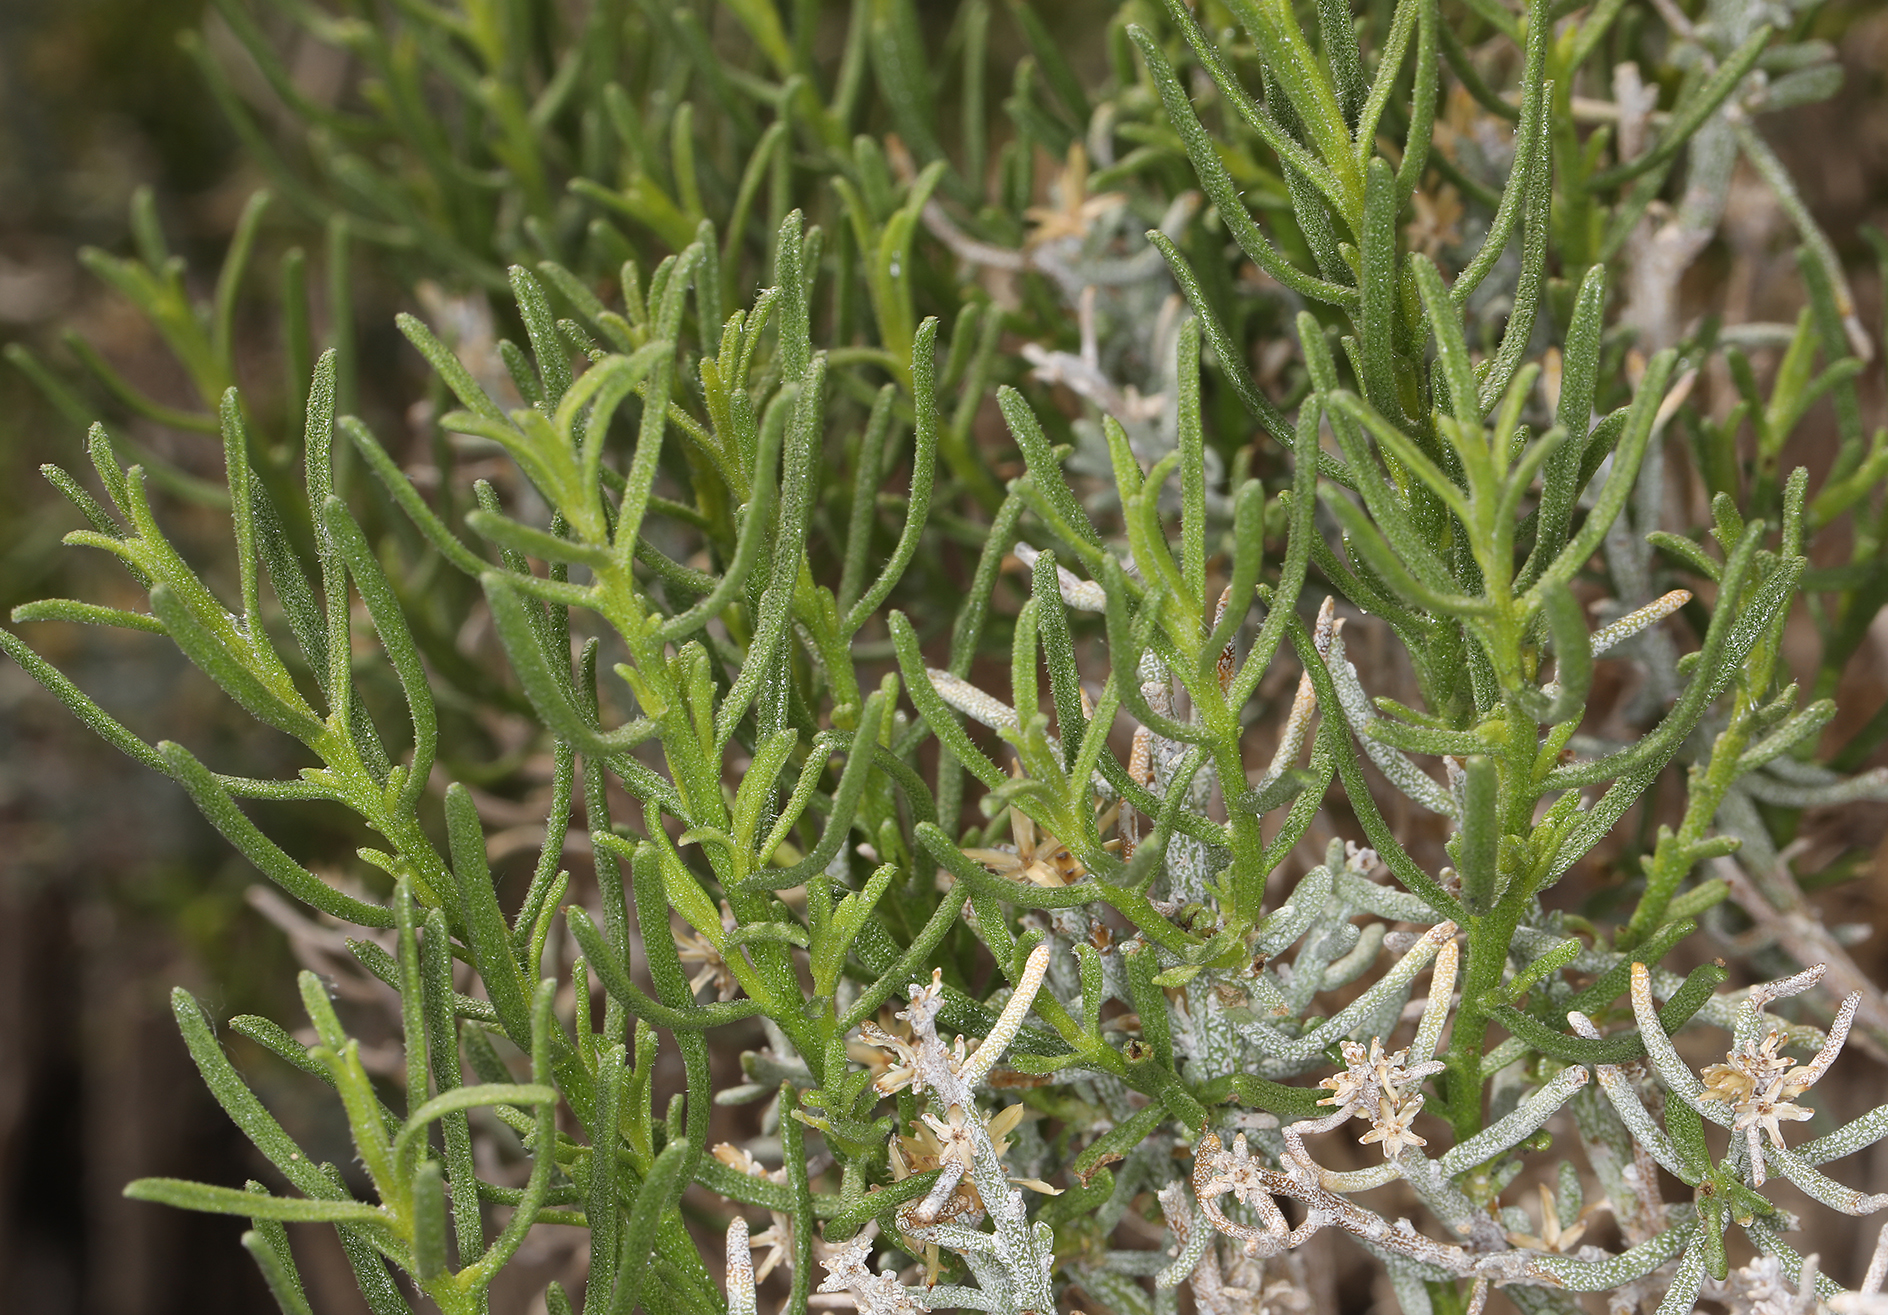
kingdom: Plantae
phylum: Tracheophyta
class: Magnoliopsida
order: Asterales
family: Asteraceae
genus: Ericameria
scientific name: Ericameria teretifolia
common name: Round-leaf rabbitbrush
